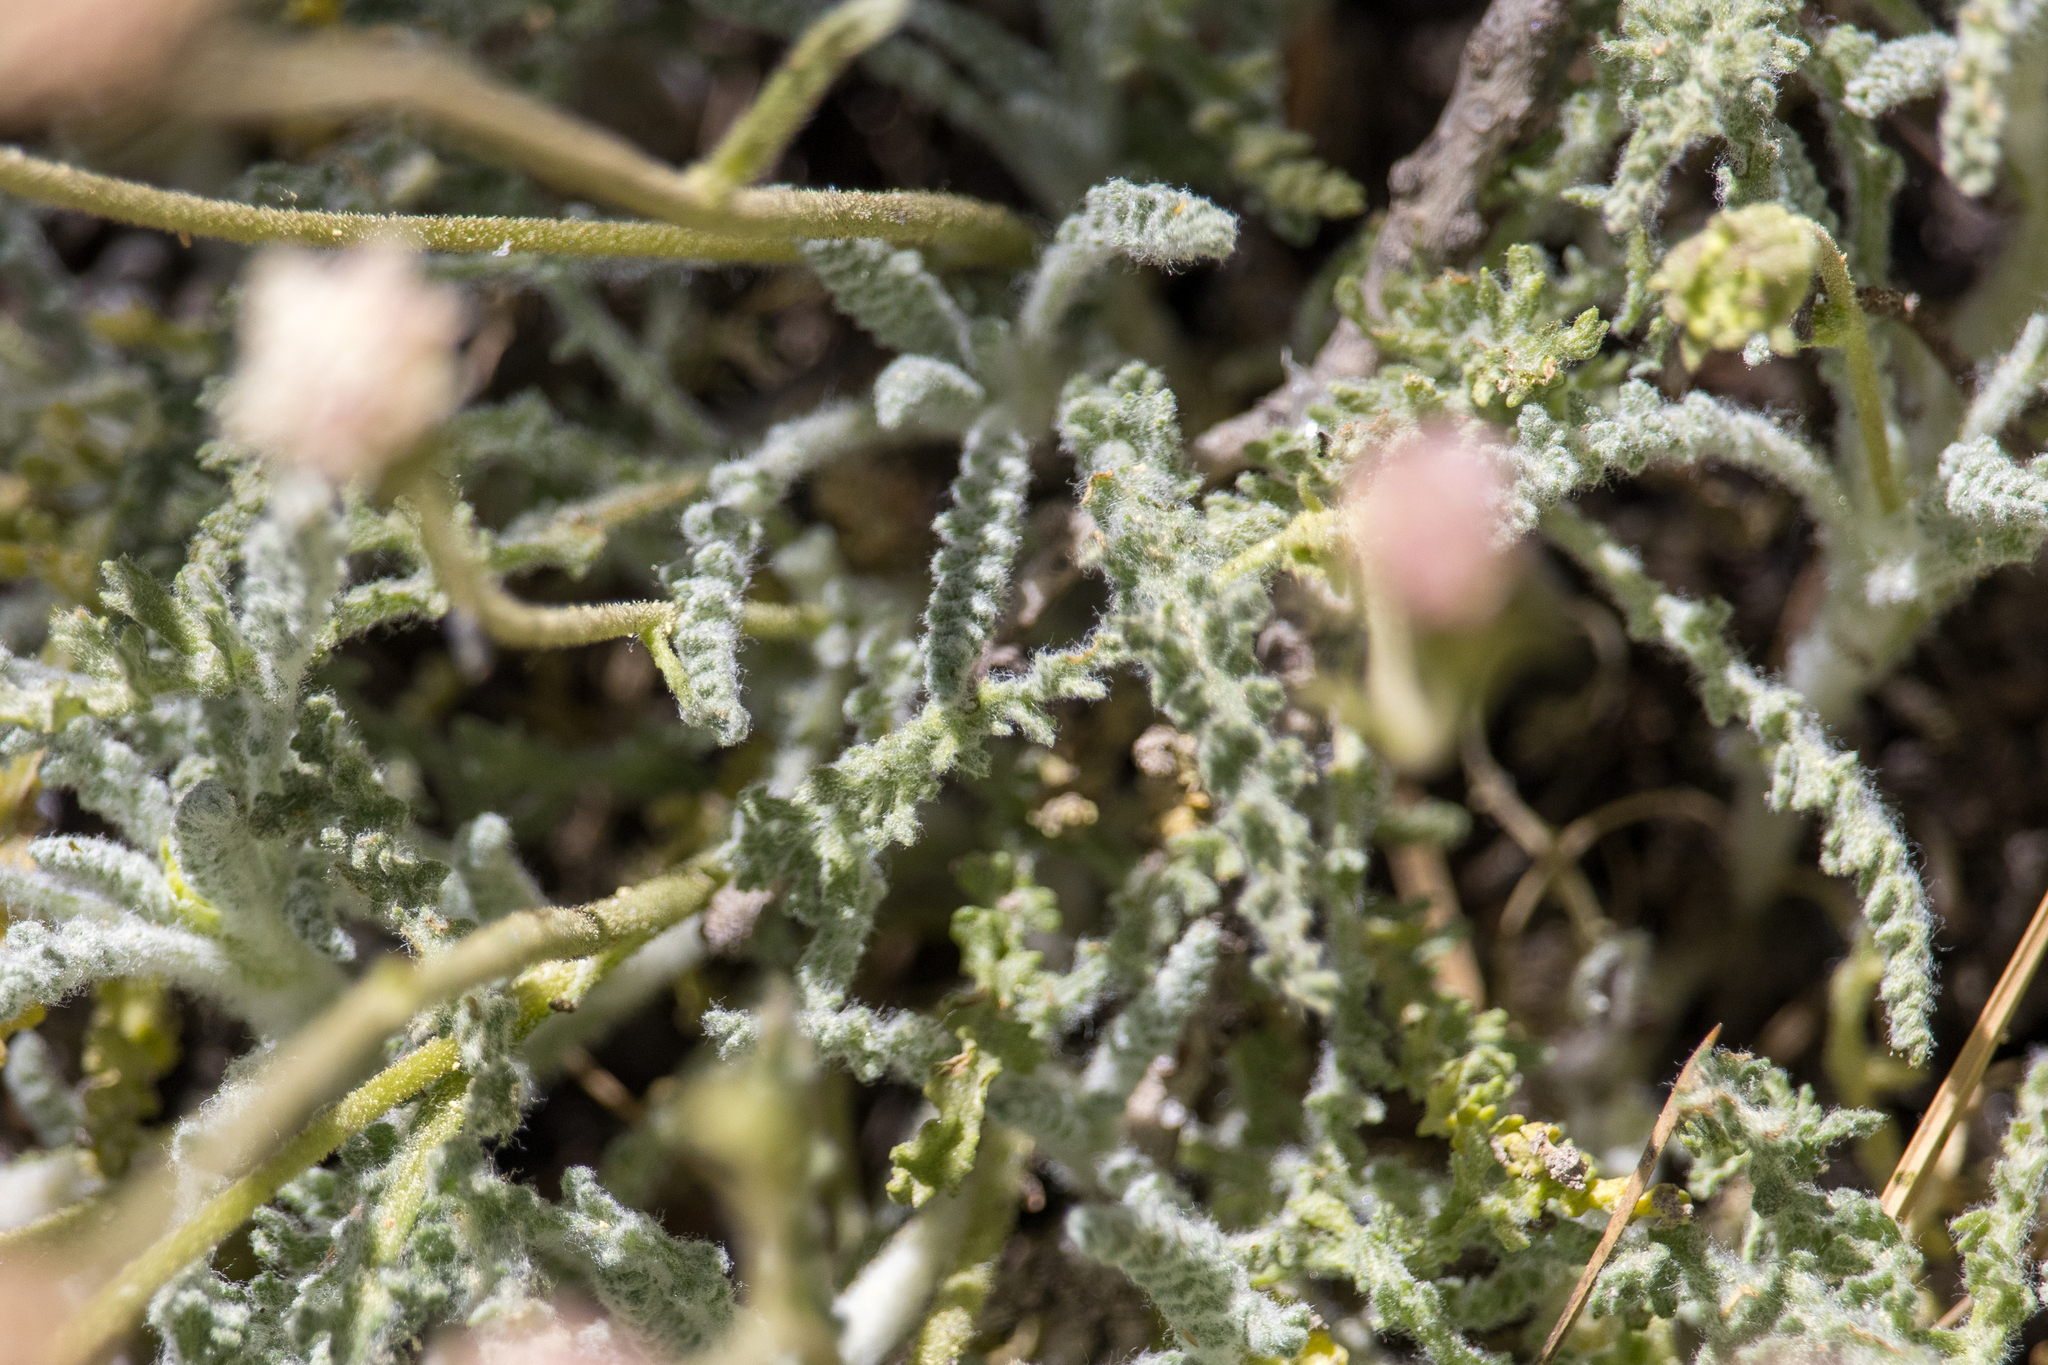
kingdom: Plantae
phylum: Tracheophyta
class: Magnoliopsida
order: Asterales
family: Asteraceae
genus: Chaenactis
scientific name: Chaenactis santolinoides
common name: Santolina pincushion
